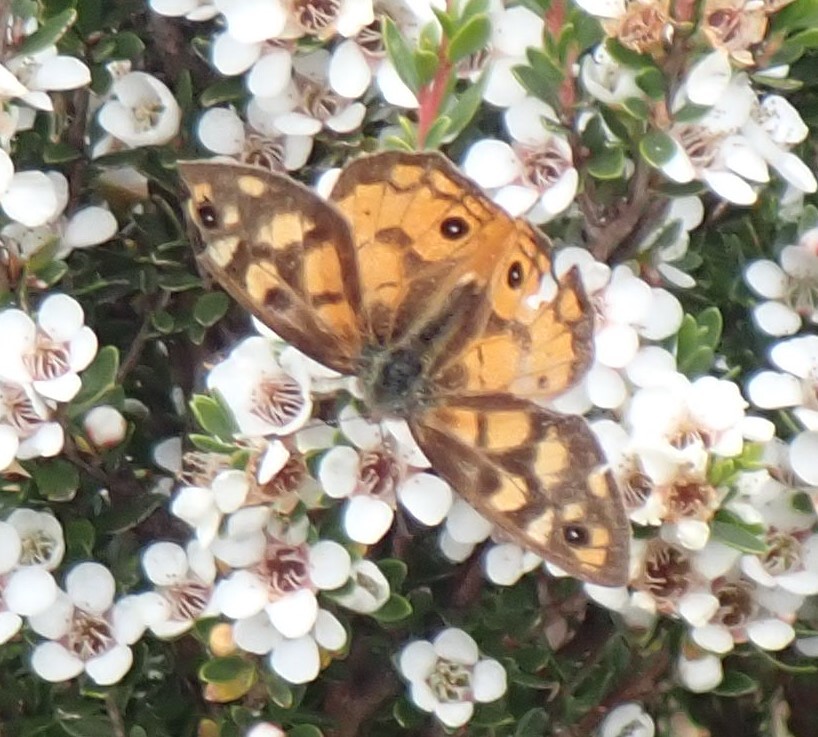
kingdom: Animalia
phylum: Arthropoda
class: Insecta
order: Lepidoptera
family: Nymphalidae
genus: Heteronympha
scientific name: Heteronympha penelope
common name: Shouldered brown
